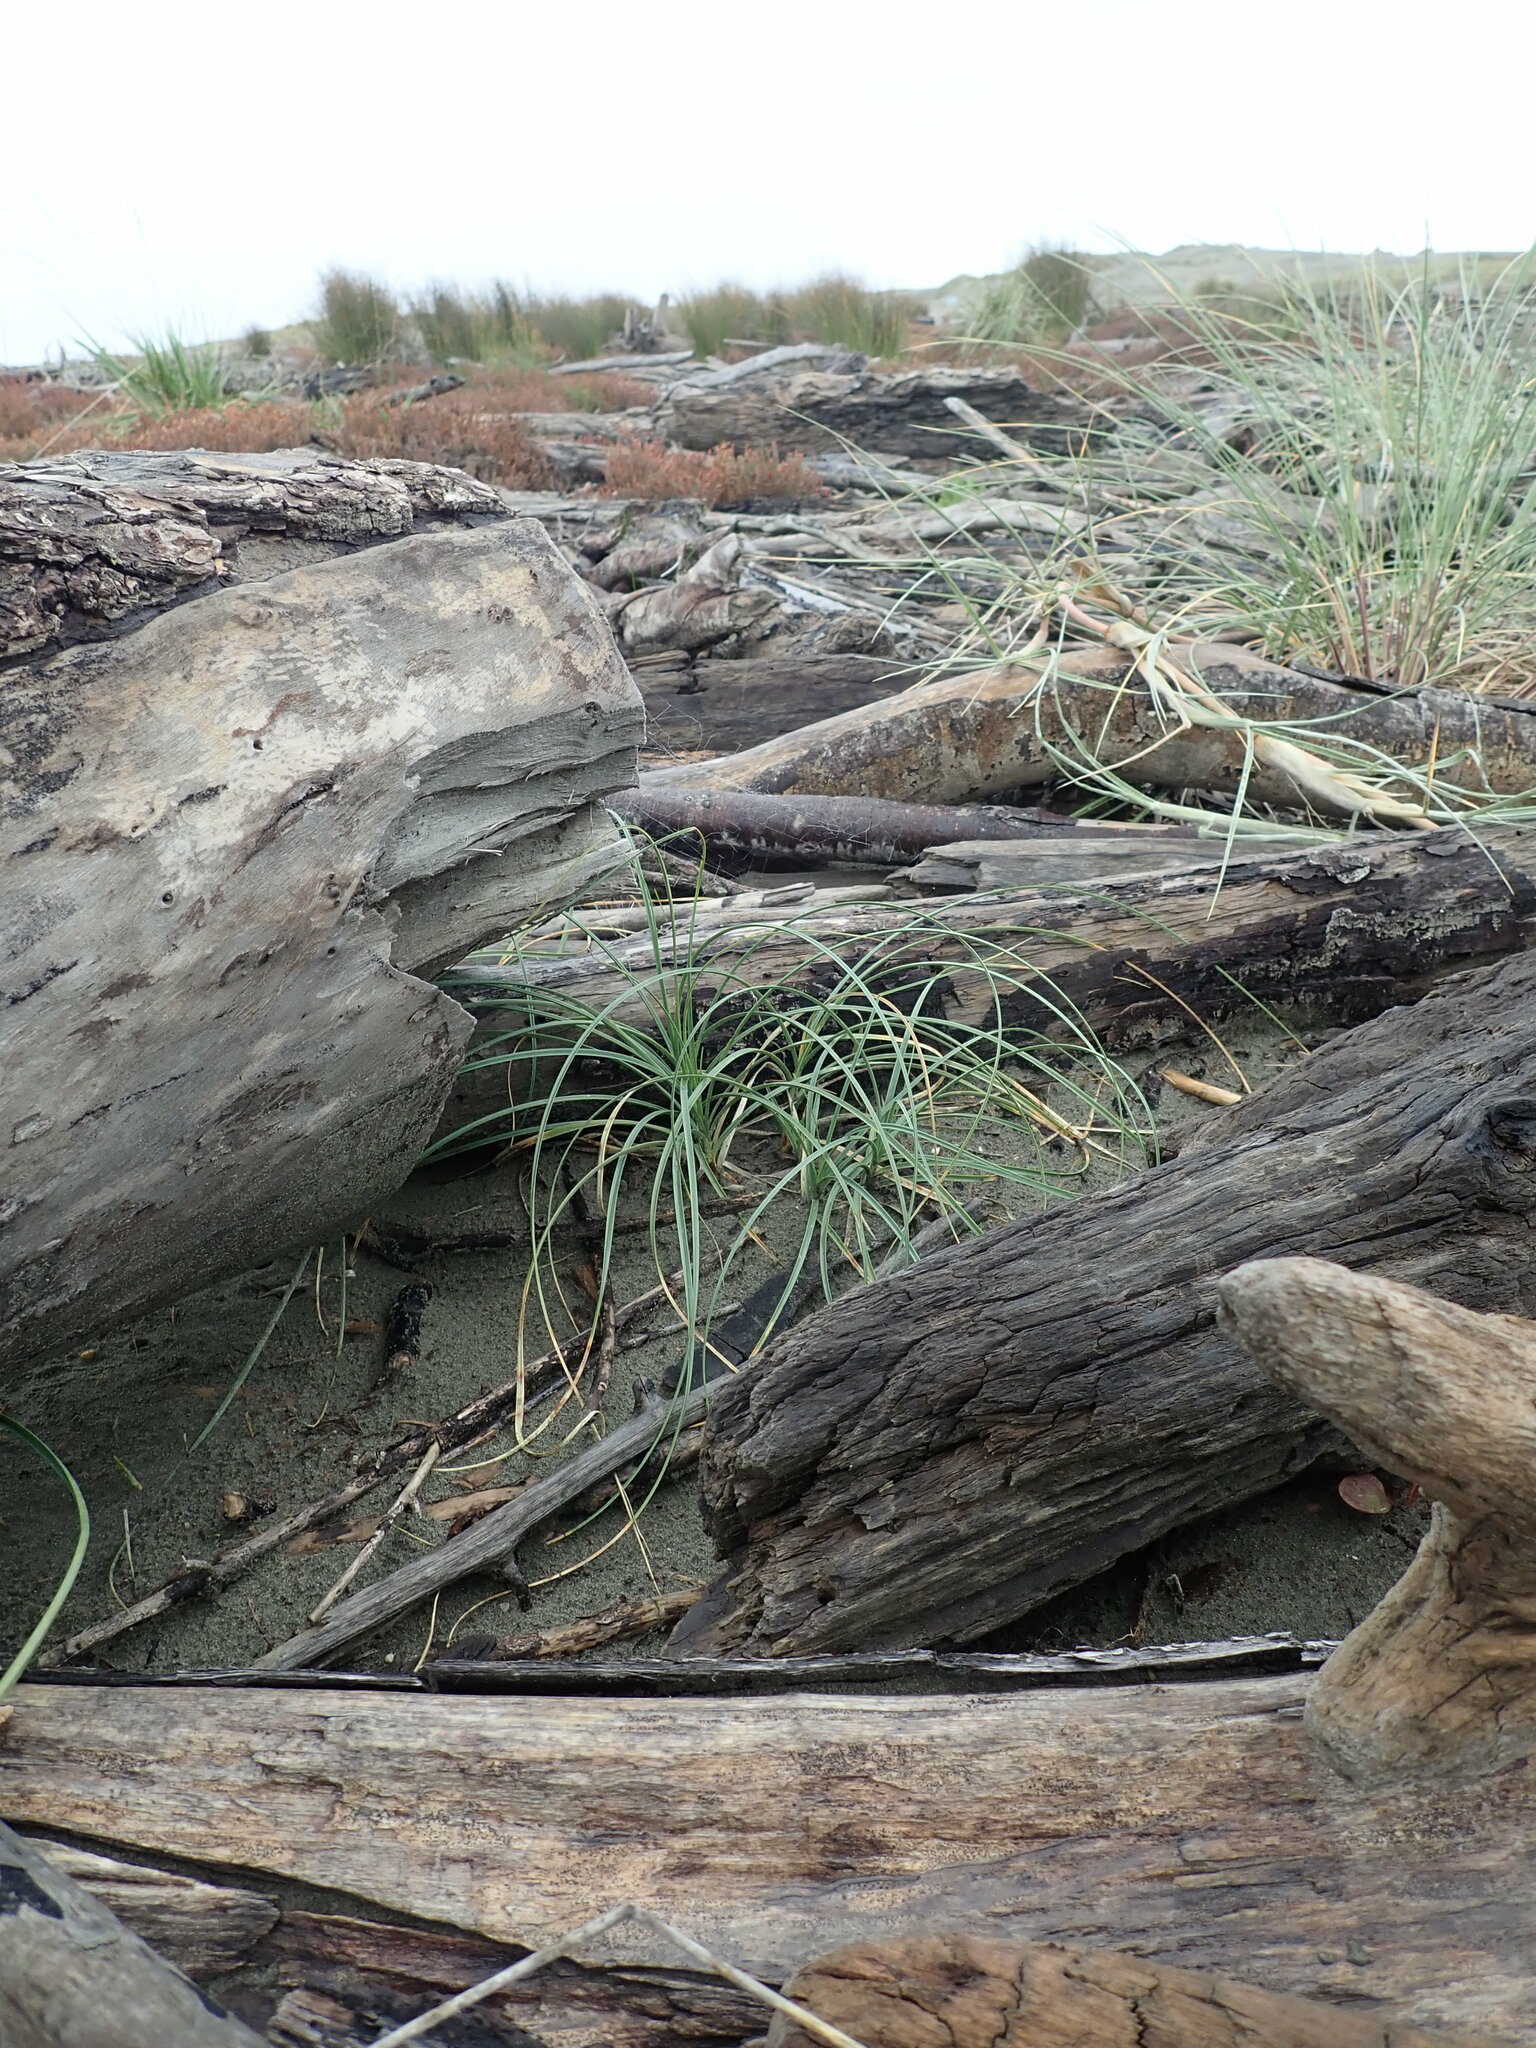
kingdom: Plantae
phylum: Tracheophyta
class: Liliopsida
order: Poales
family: Cyperaceae
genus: Carex
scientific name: Carex pumila
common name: Dwarf sedge
